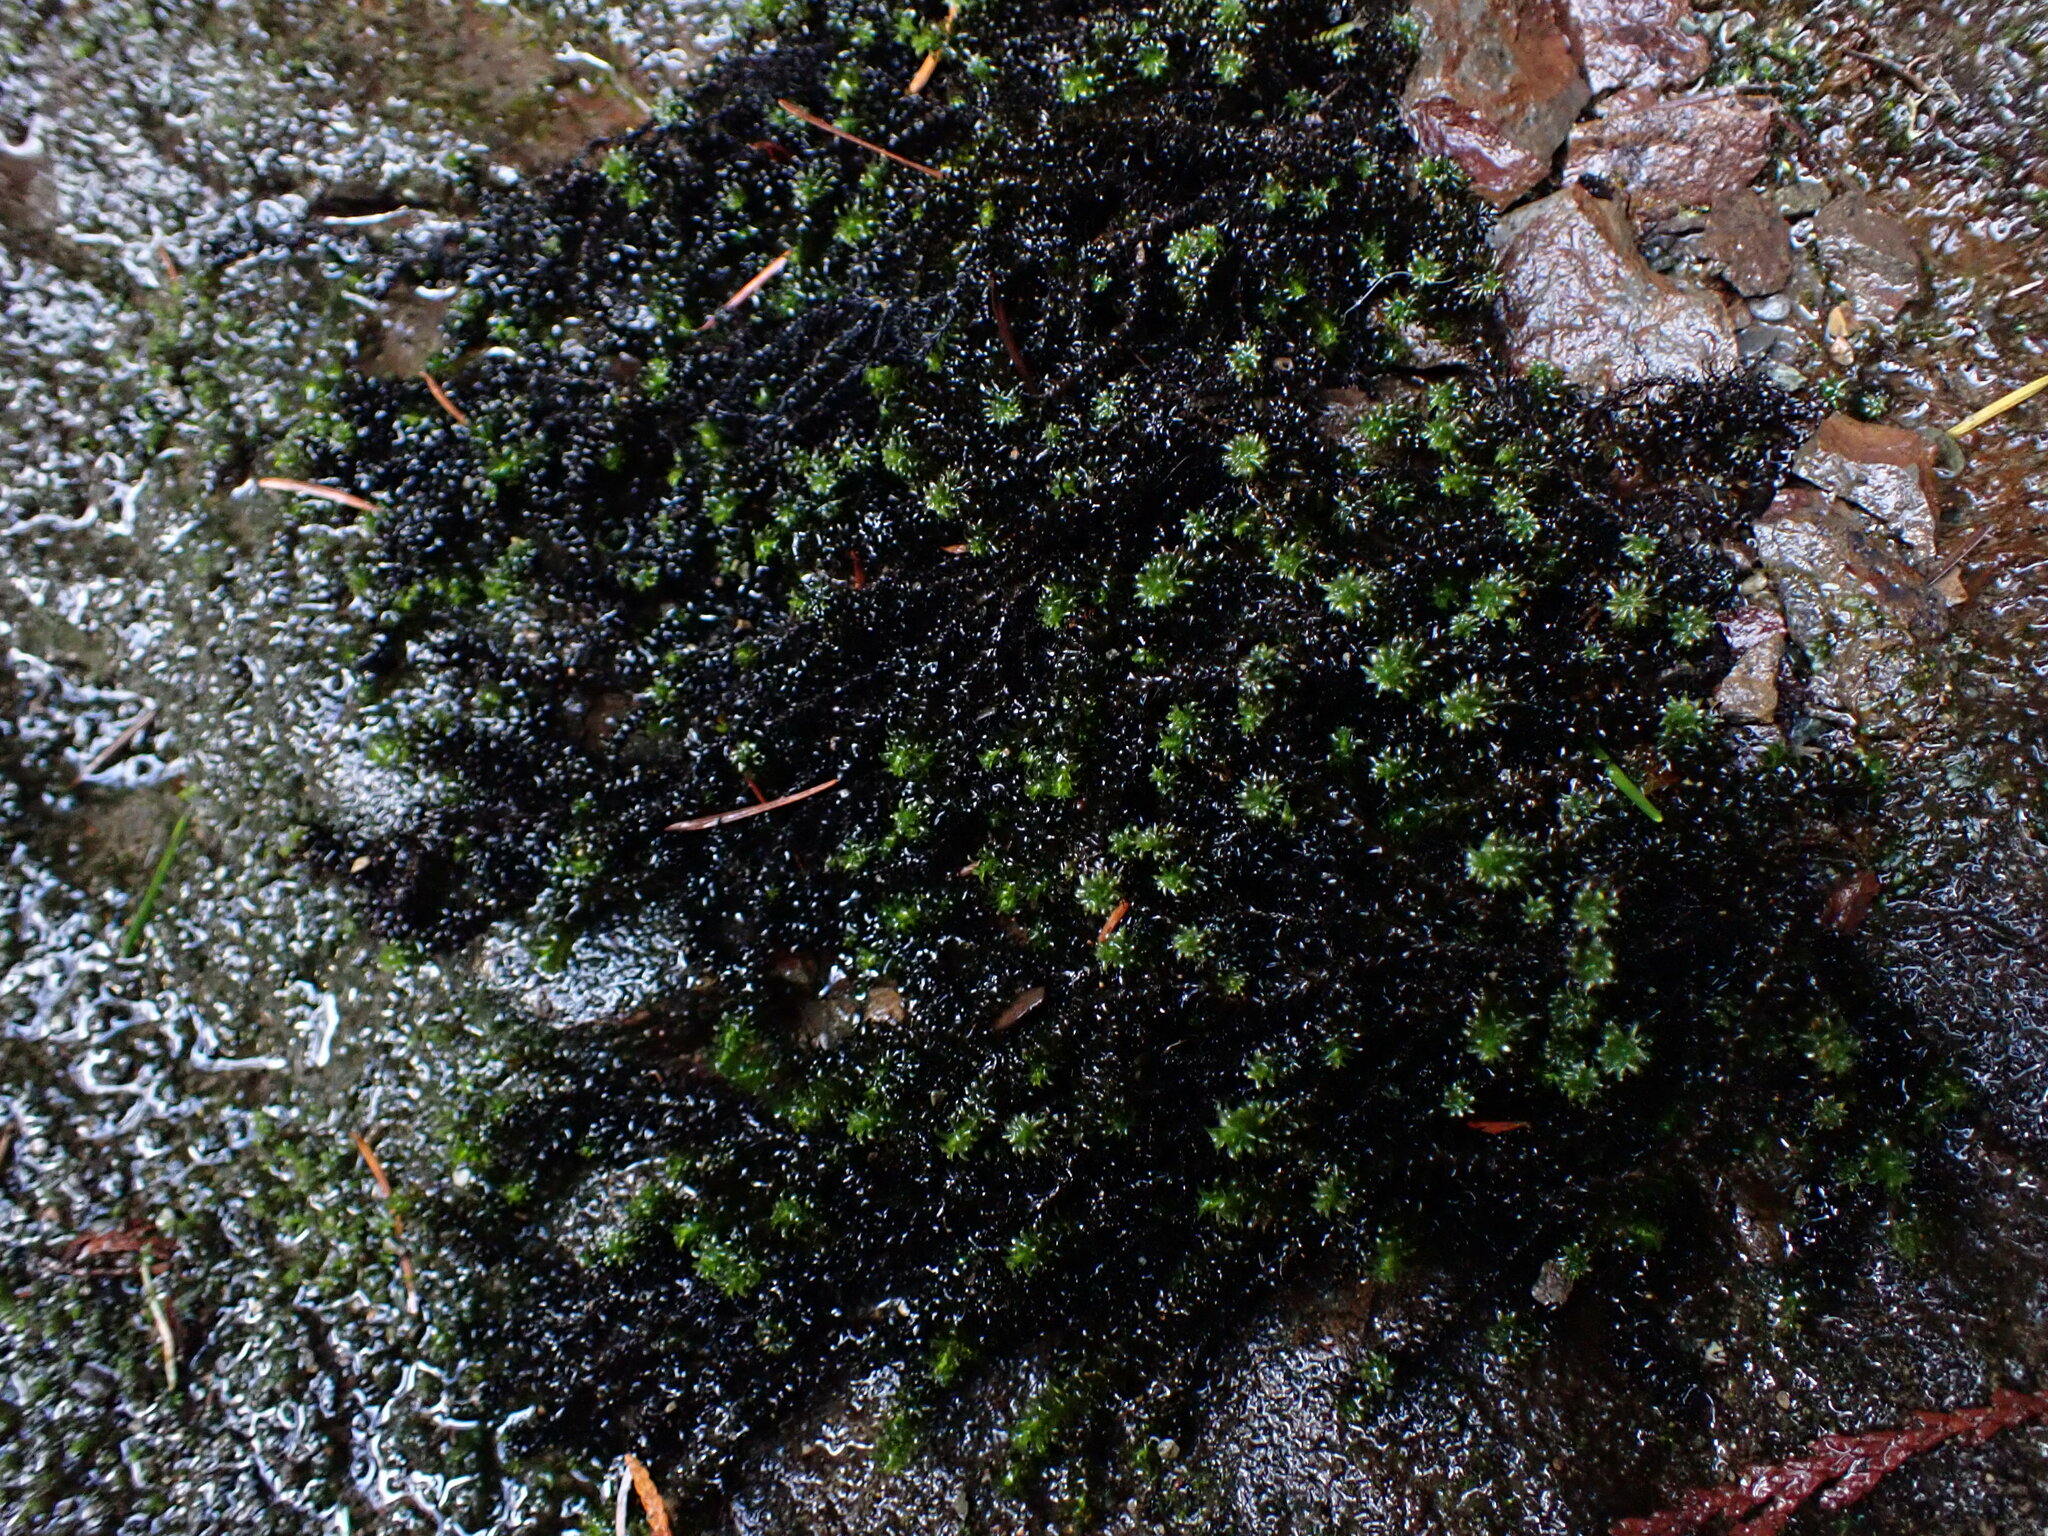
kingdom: Plantae
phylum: Bryophyta
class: Bryopsida
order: Scouleriales
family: Scouleriaceae
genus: Scouleria
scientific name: Scouleria aquatica
